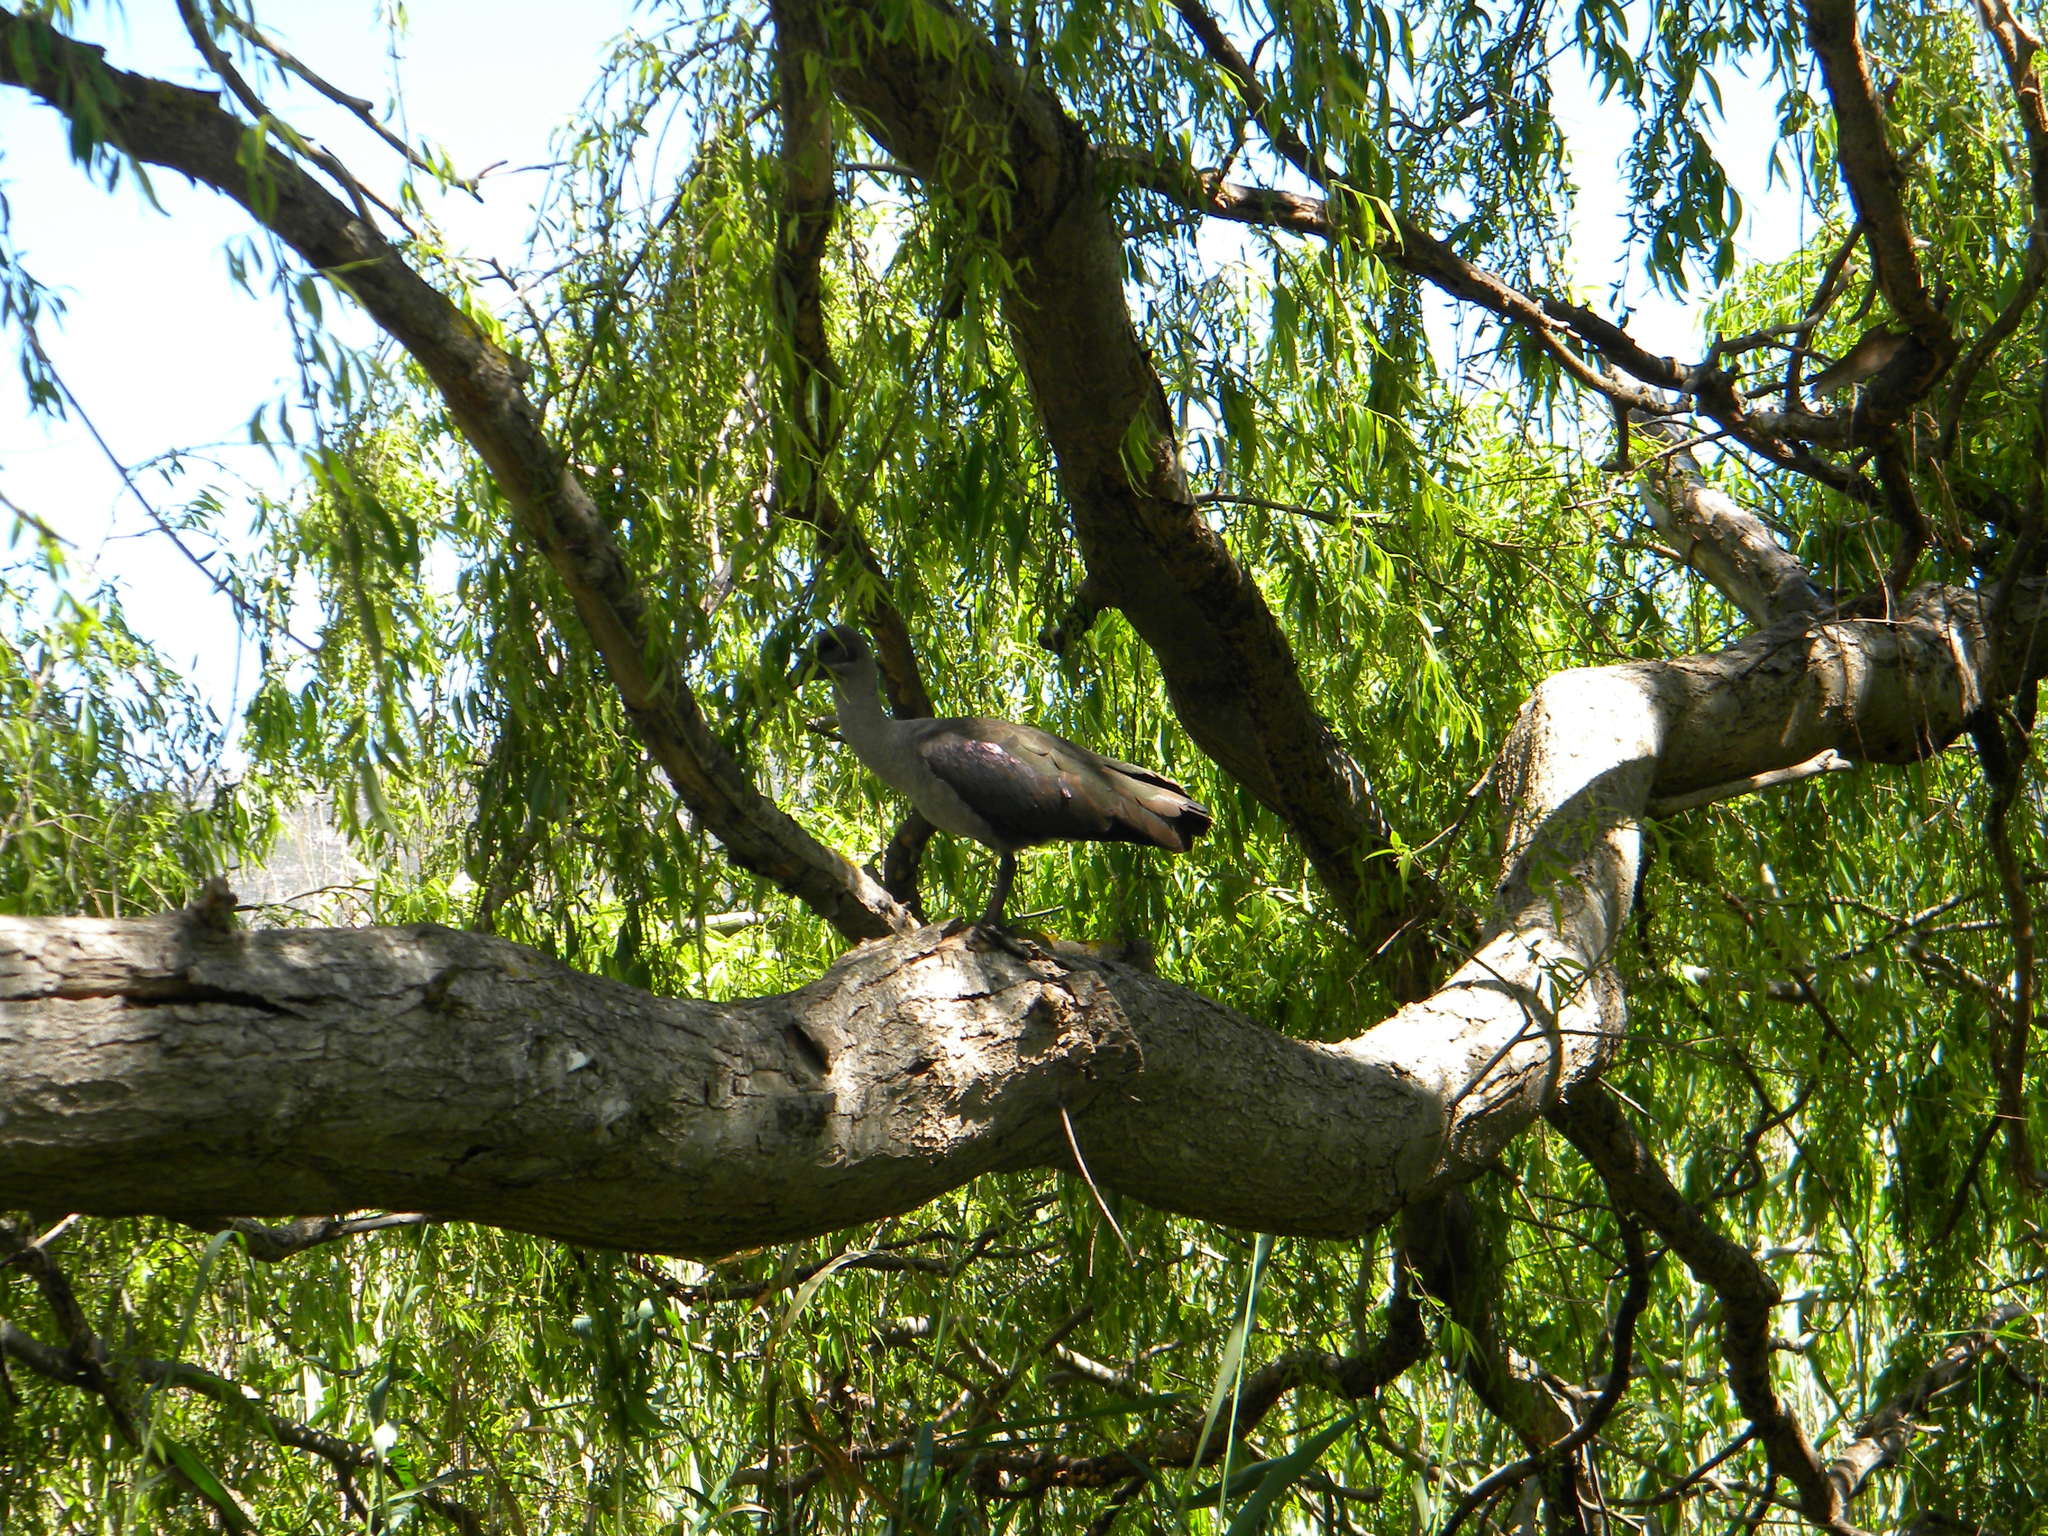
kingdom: Animalia
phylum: Chordata
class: Aves
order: Pelecaniformes
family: Threskiornithidae
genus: Bostrychia
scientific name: Bostrychia hagedash
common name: Hadada ibis
